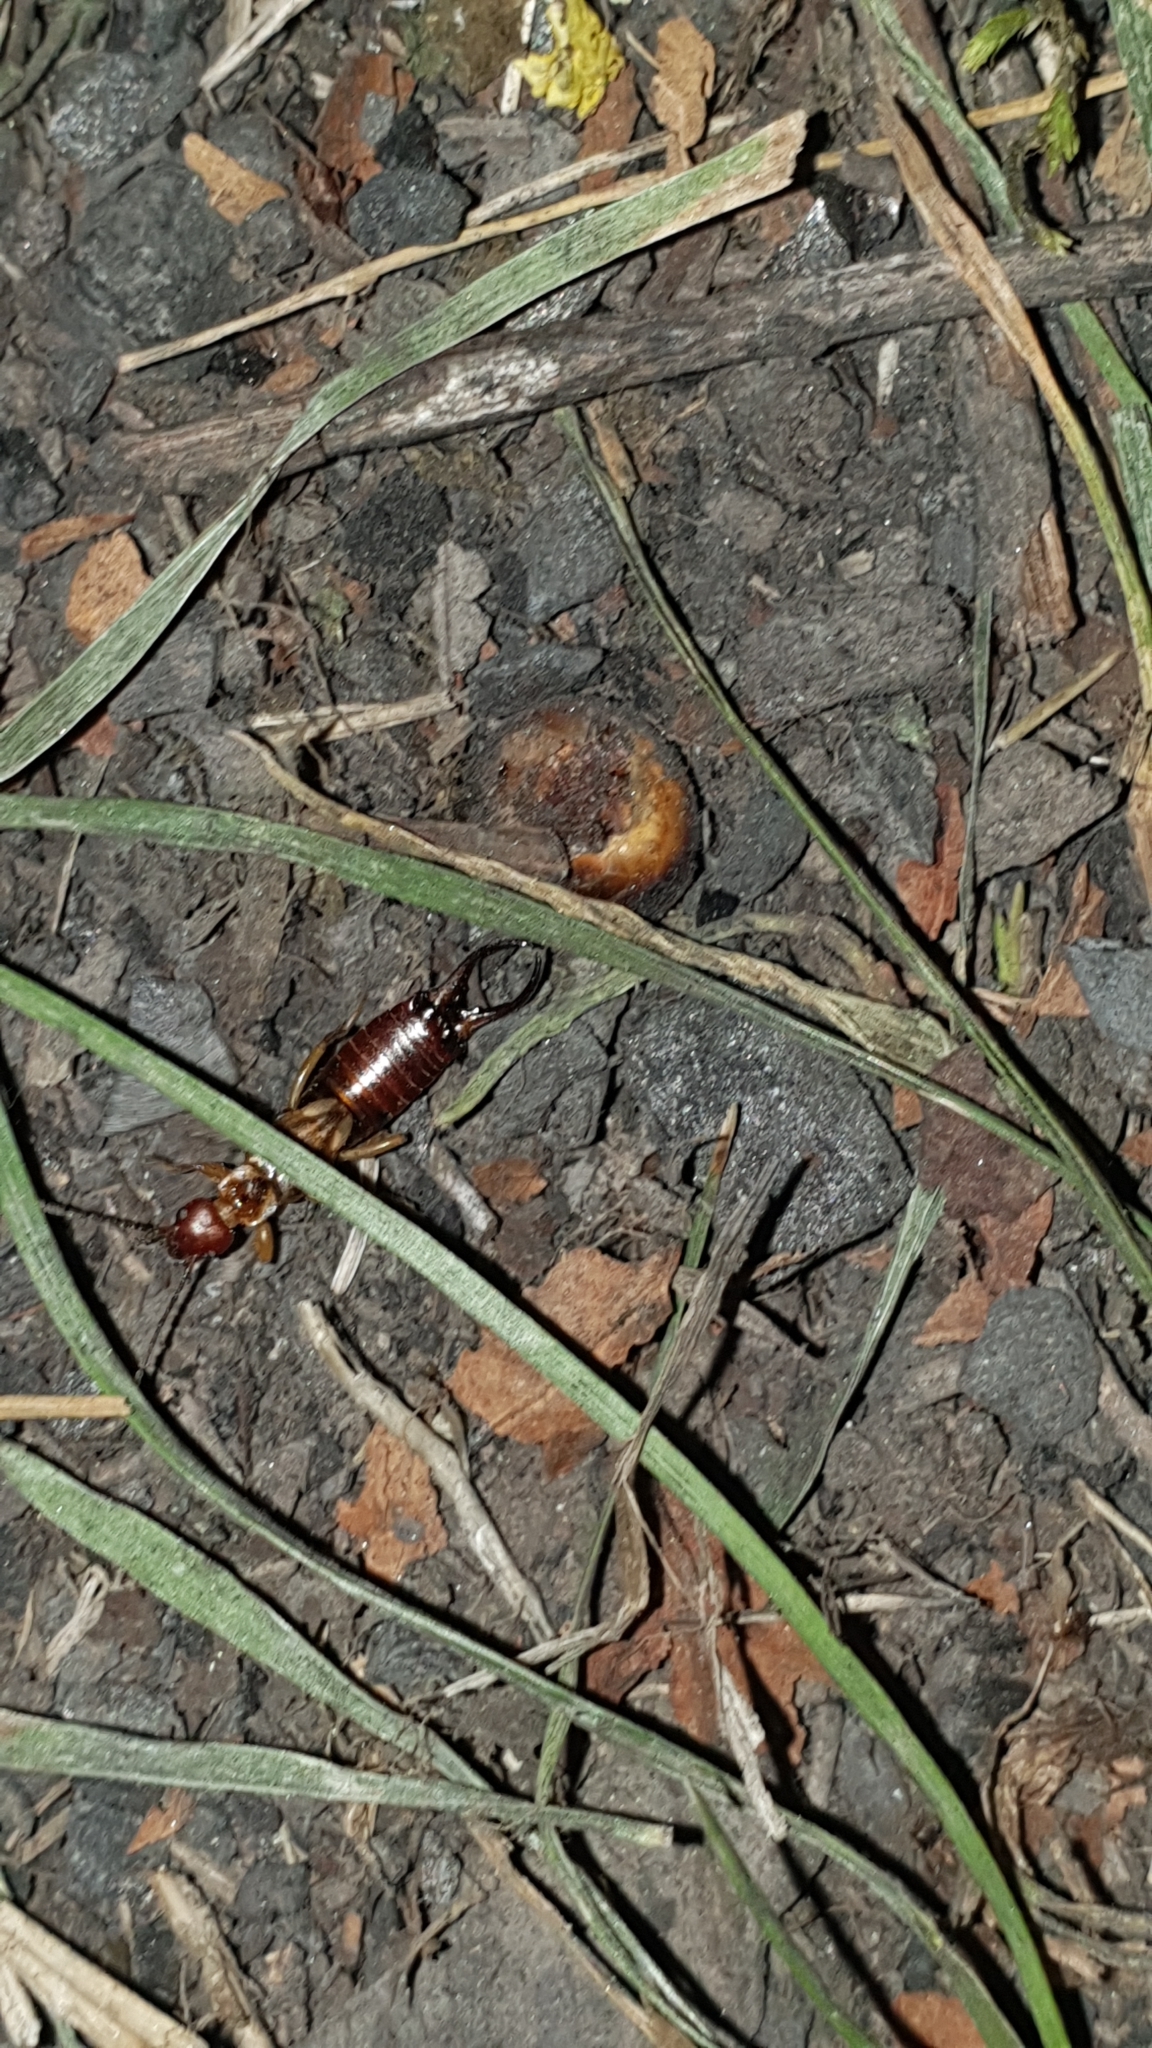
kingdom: Animalia
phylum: Arthropoda
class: Insecta
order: Dermaptera
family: Forficulidae
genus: Forficula
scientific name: Forficula
